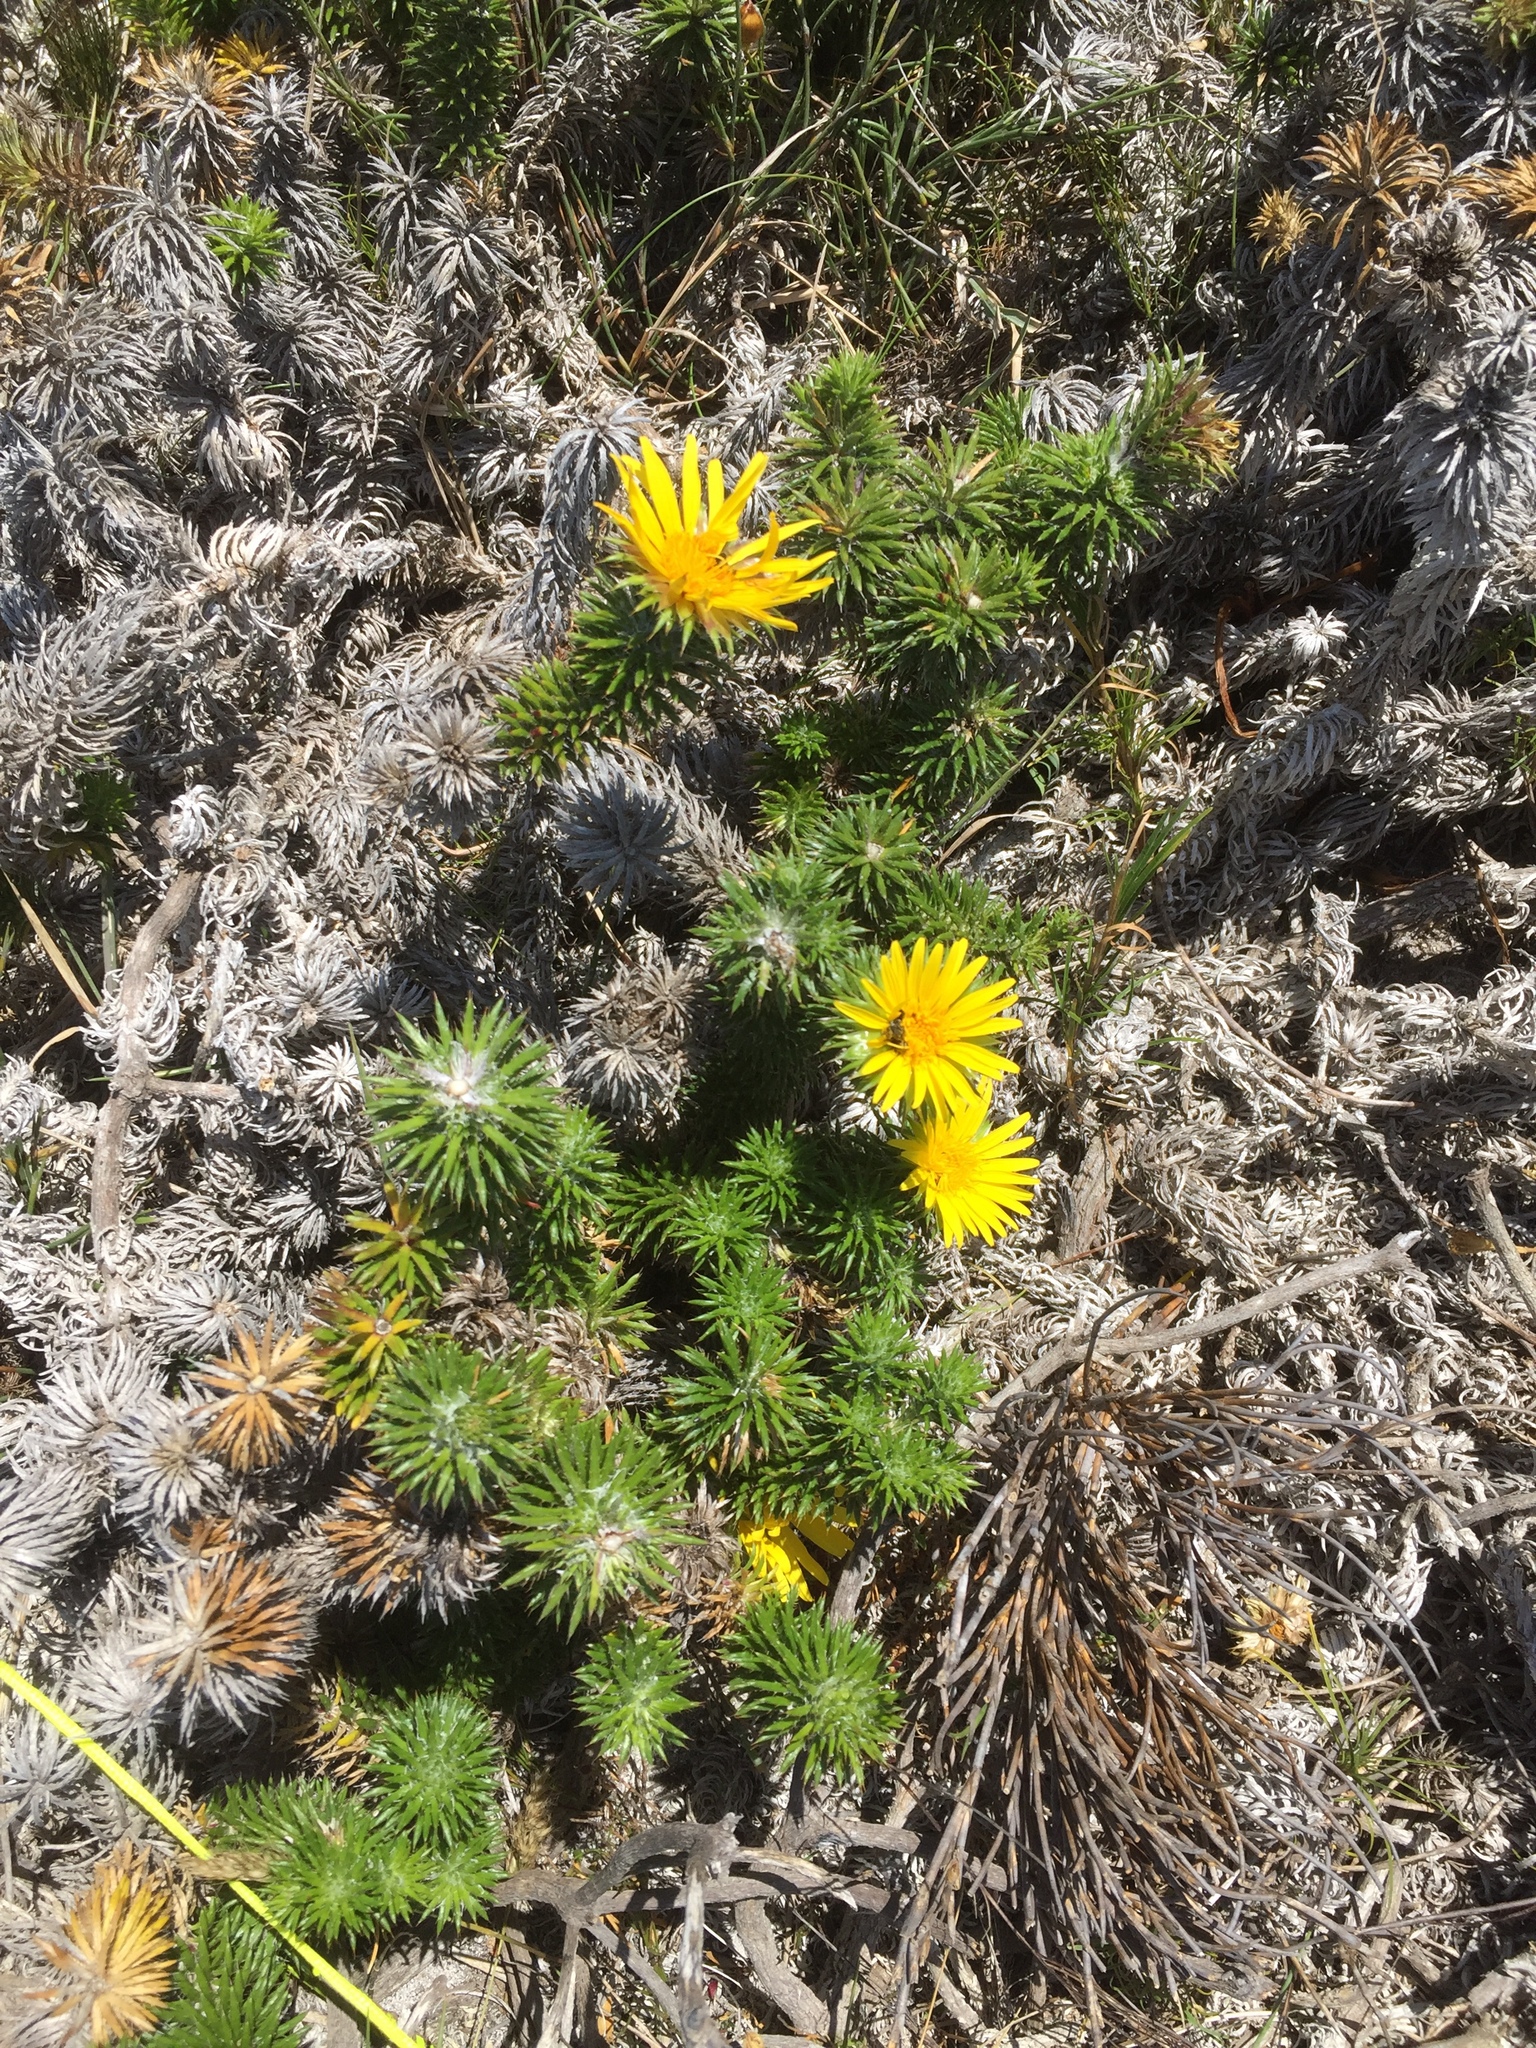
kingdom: Plantae
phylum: Tracheophyta
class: Magnoliopsida
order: Asterales
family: Asteraceae
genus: Cullumia
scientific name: Cullumia squarrosa
